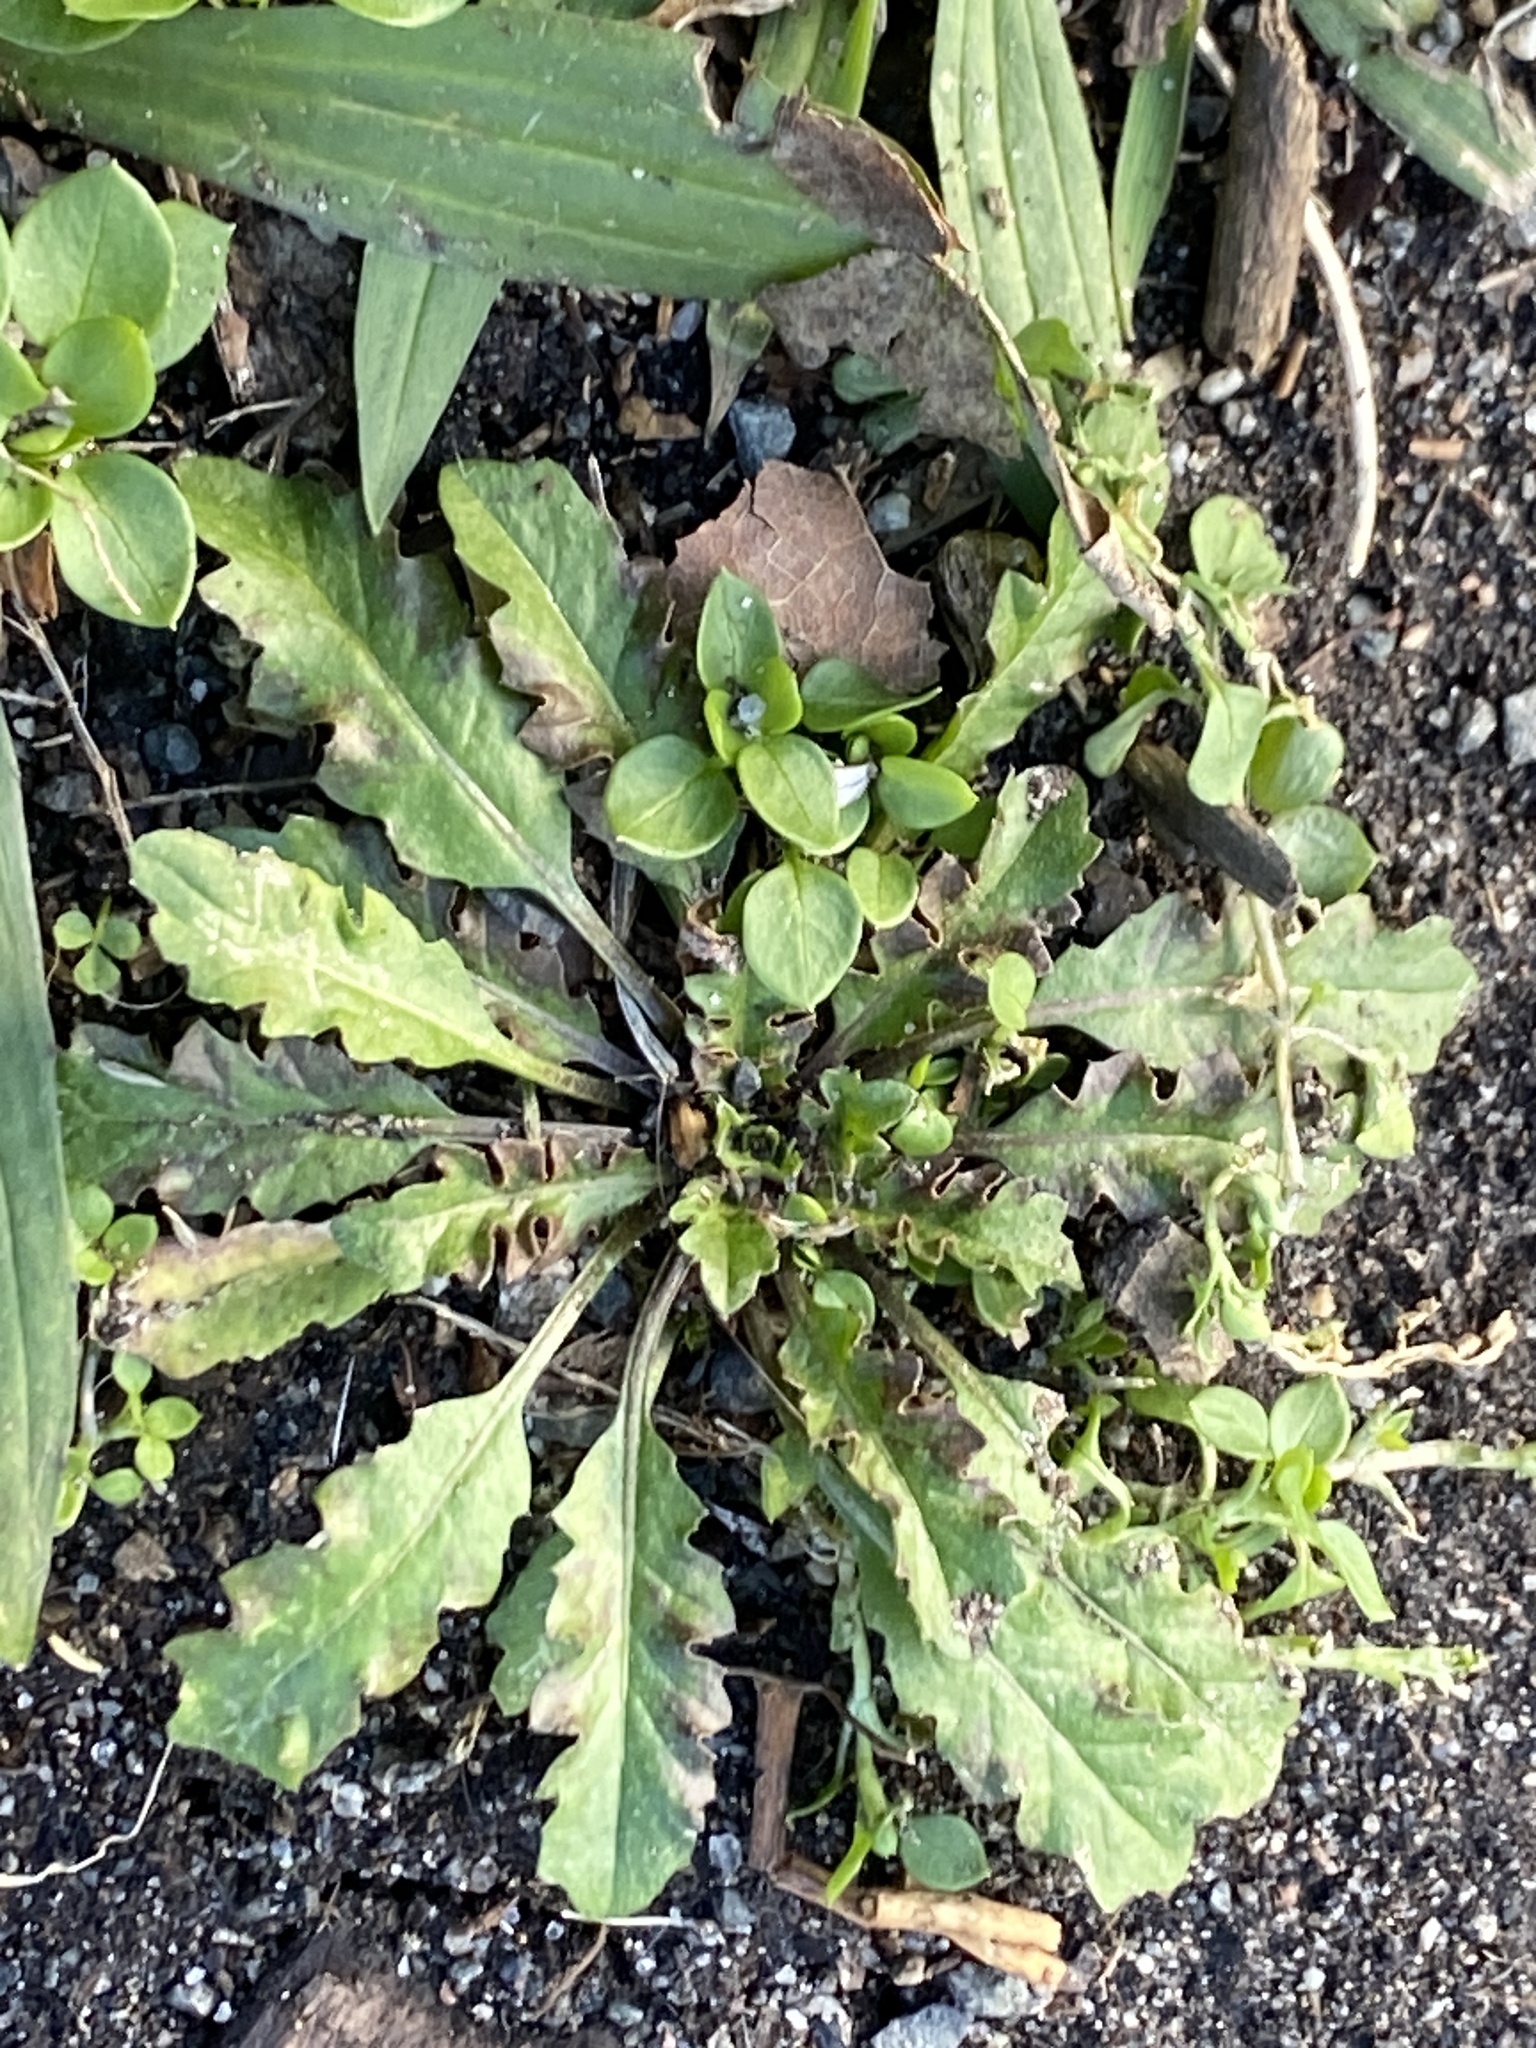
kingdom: Plantae
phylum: Tracheophyta
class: Magnoliopsida
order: Brassicales
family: Brassicaceae
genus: Capsella
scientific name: Capsella bursa-pastoris
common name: Shepherd's purse
